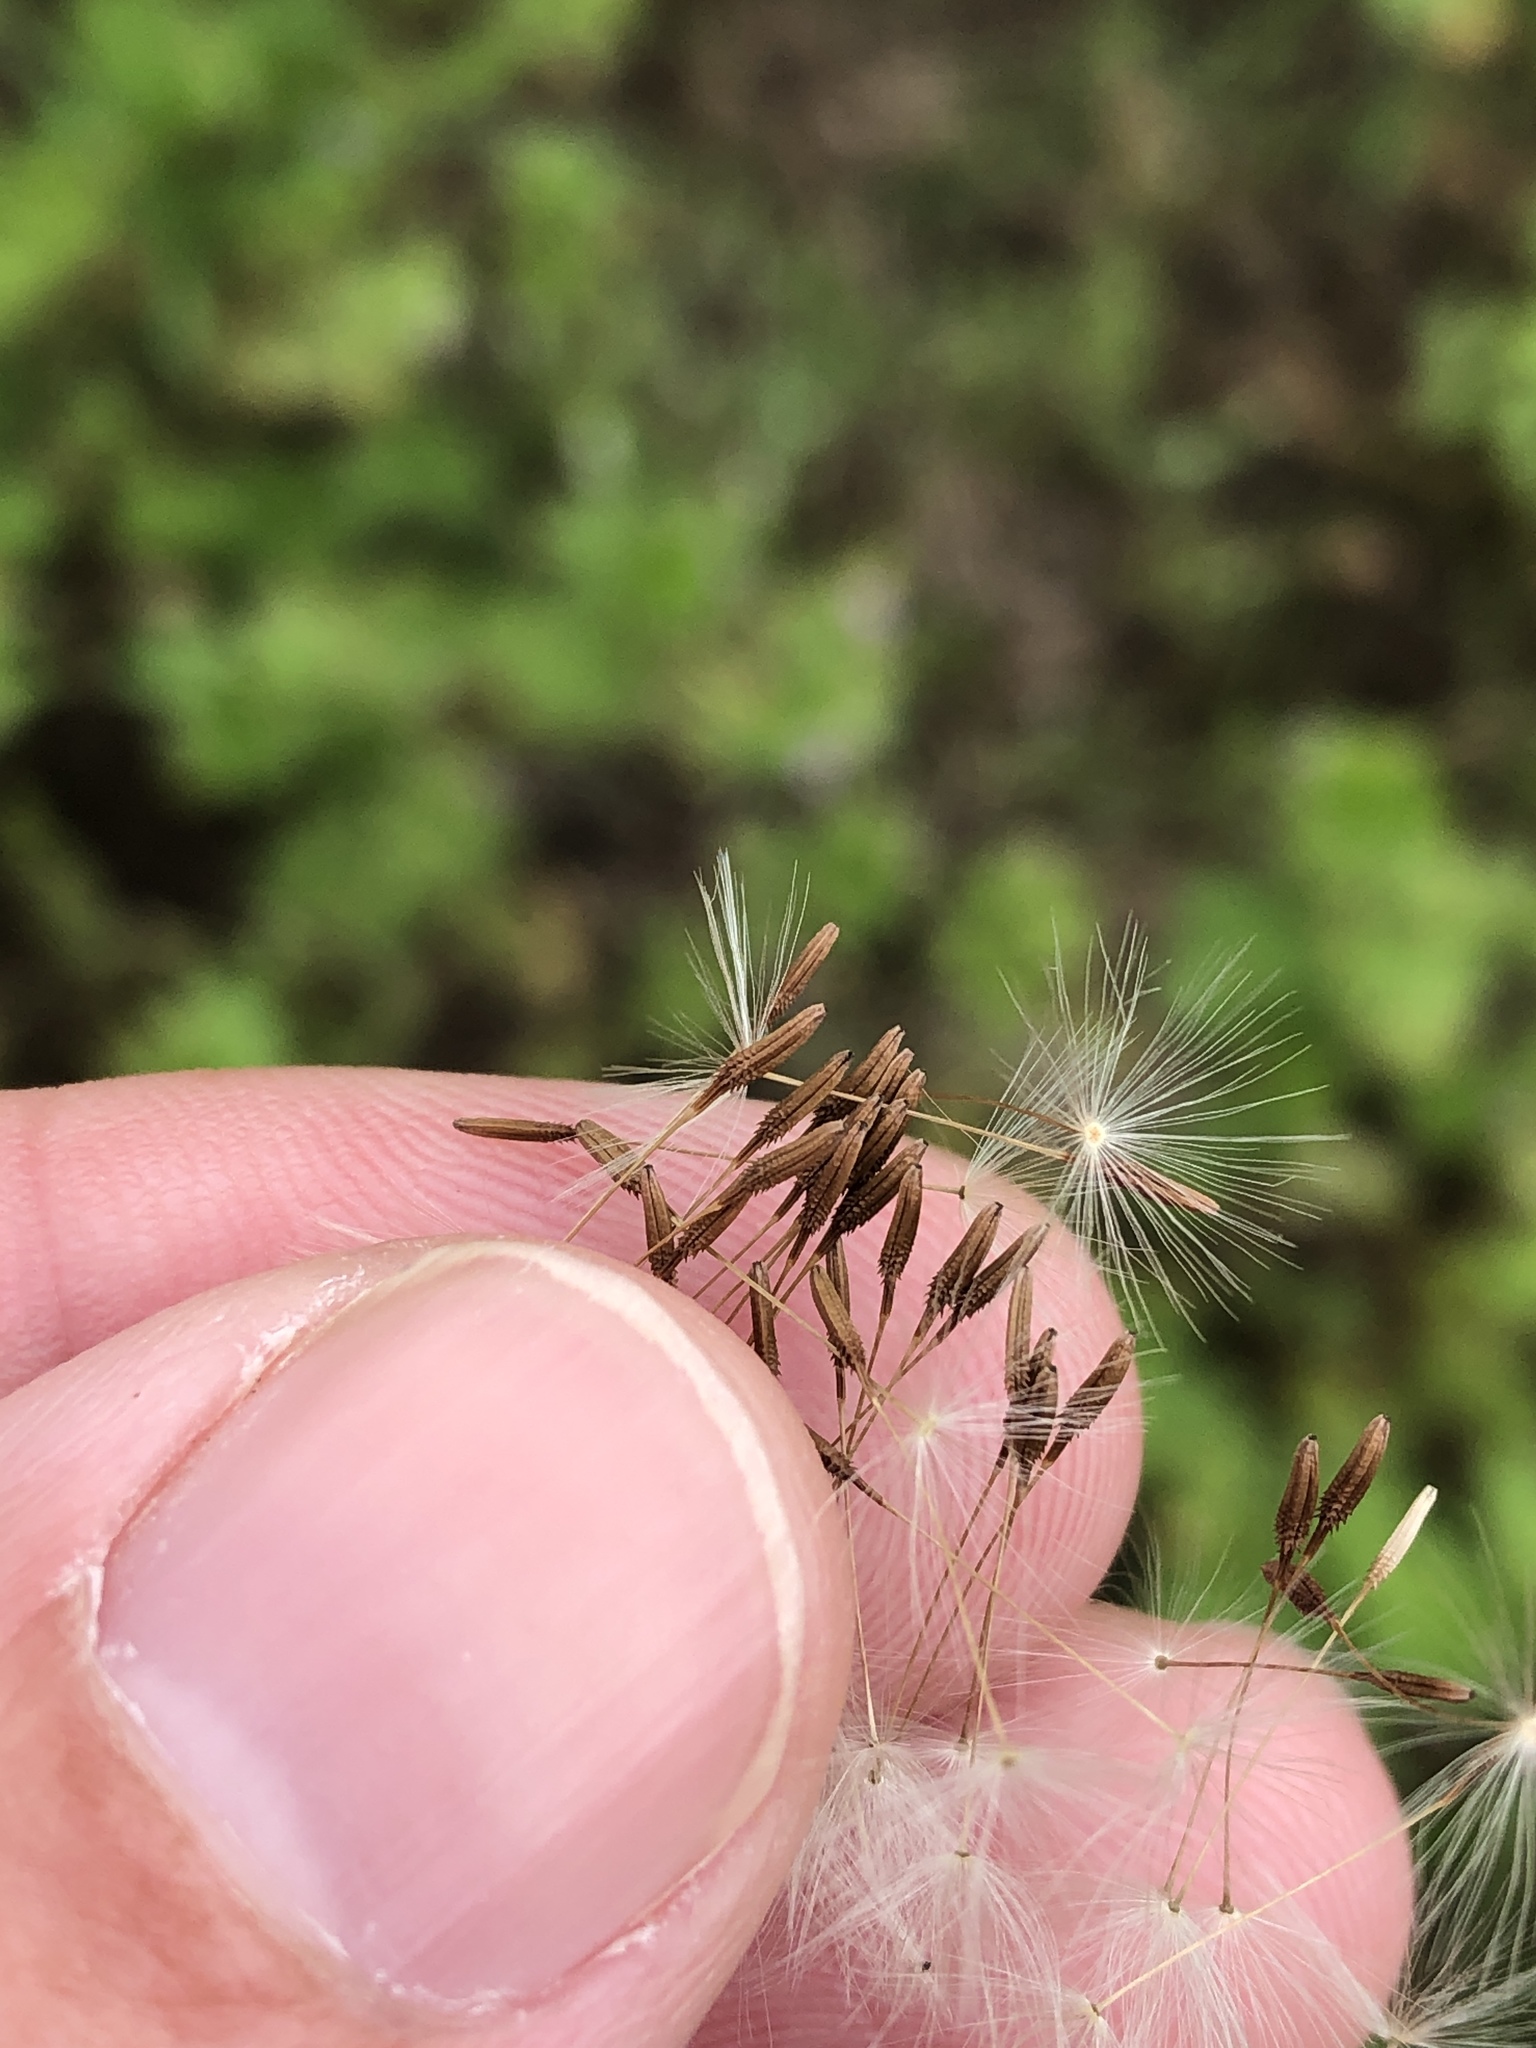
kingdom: Plantae
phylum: Tracheophyta
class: Magnoliopsida
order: Asterales
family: Asteraceae
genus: Taraxacum
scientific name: Taraxacum officinale
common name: Common dandelion
